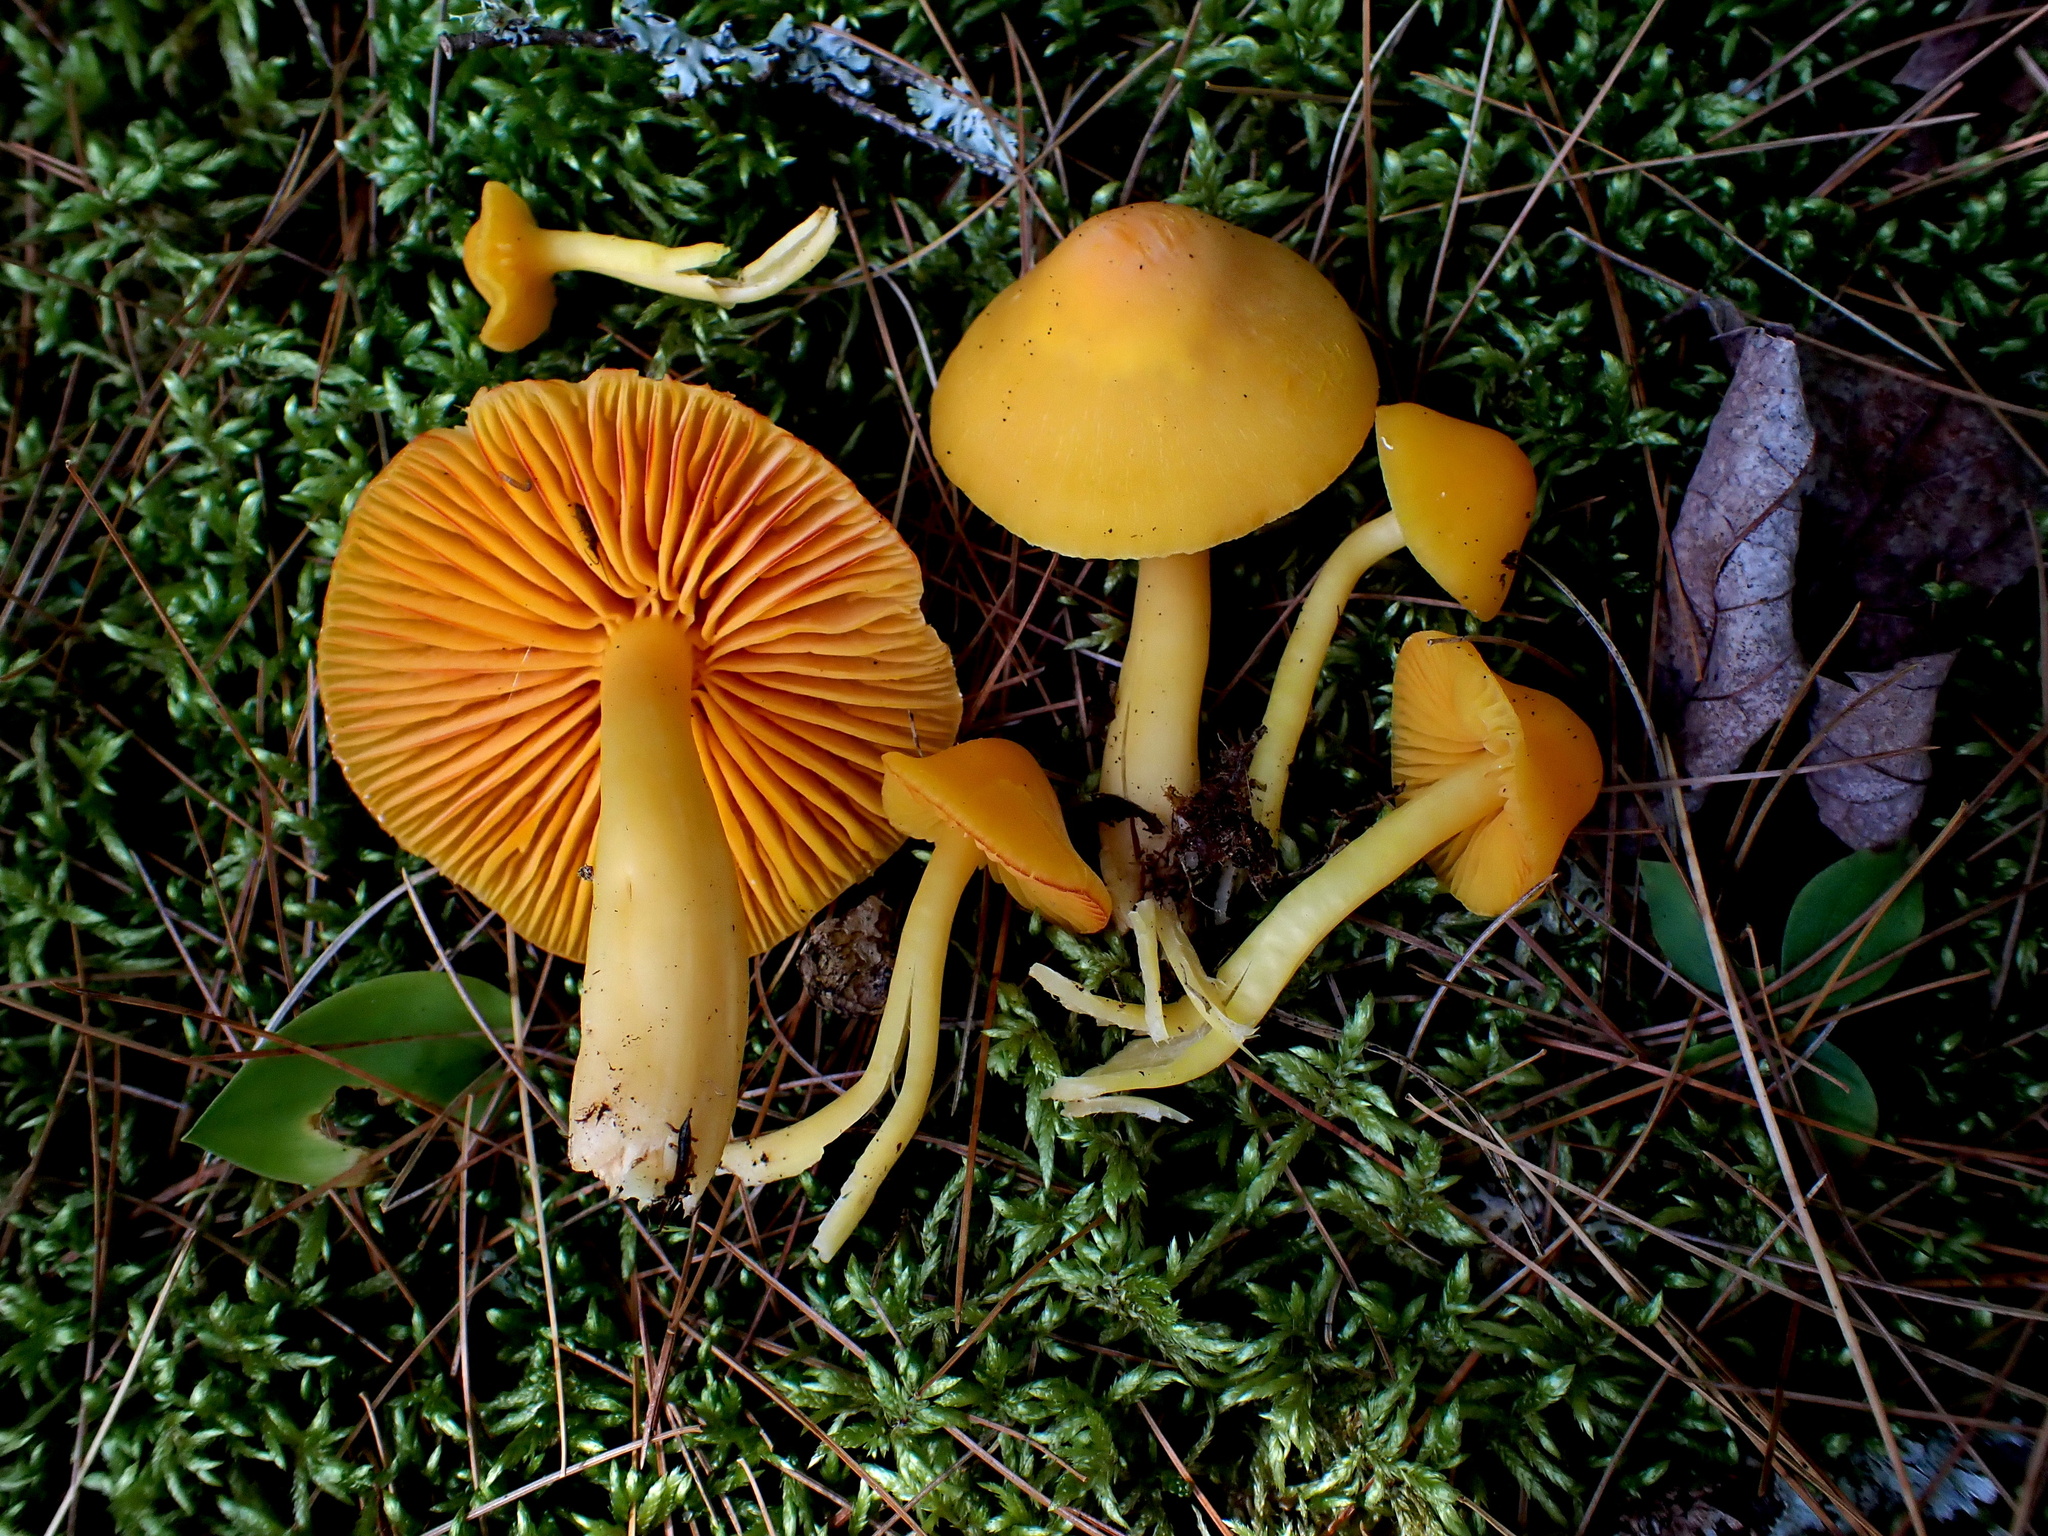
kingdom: Fungi
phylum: Basidiomycota
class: Agaricomycetes
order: Agaricales
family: Hygrophoraceae
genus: Humidicutis
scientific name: Humidicutis marginata
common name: Orange gilled waxcap
